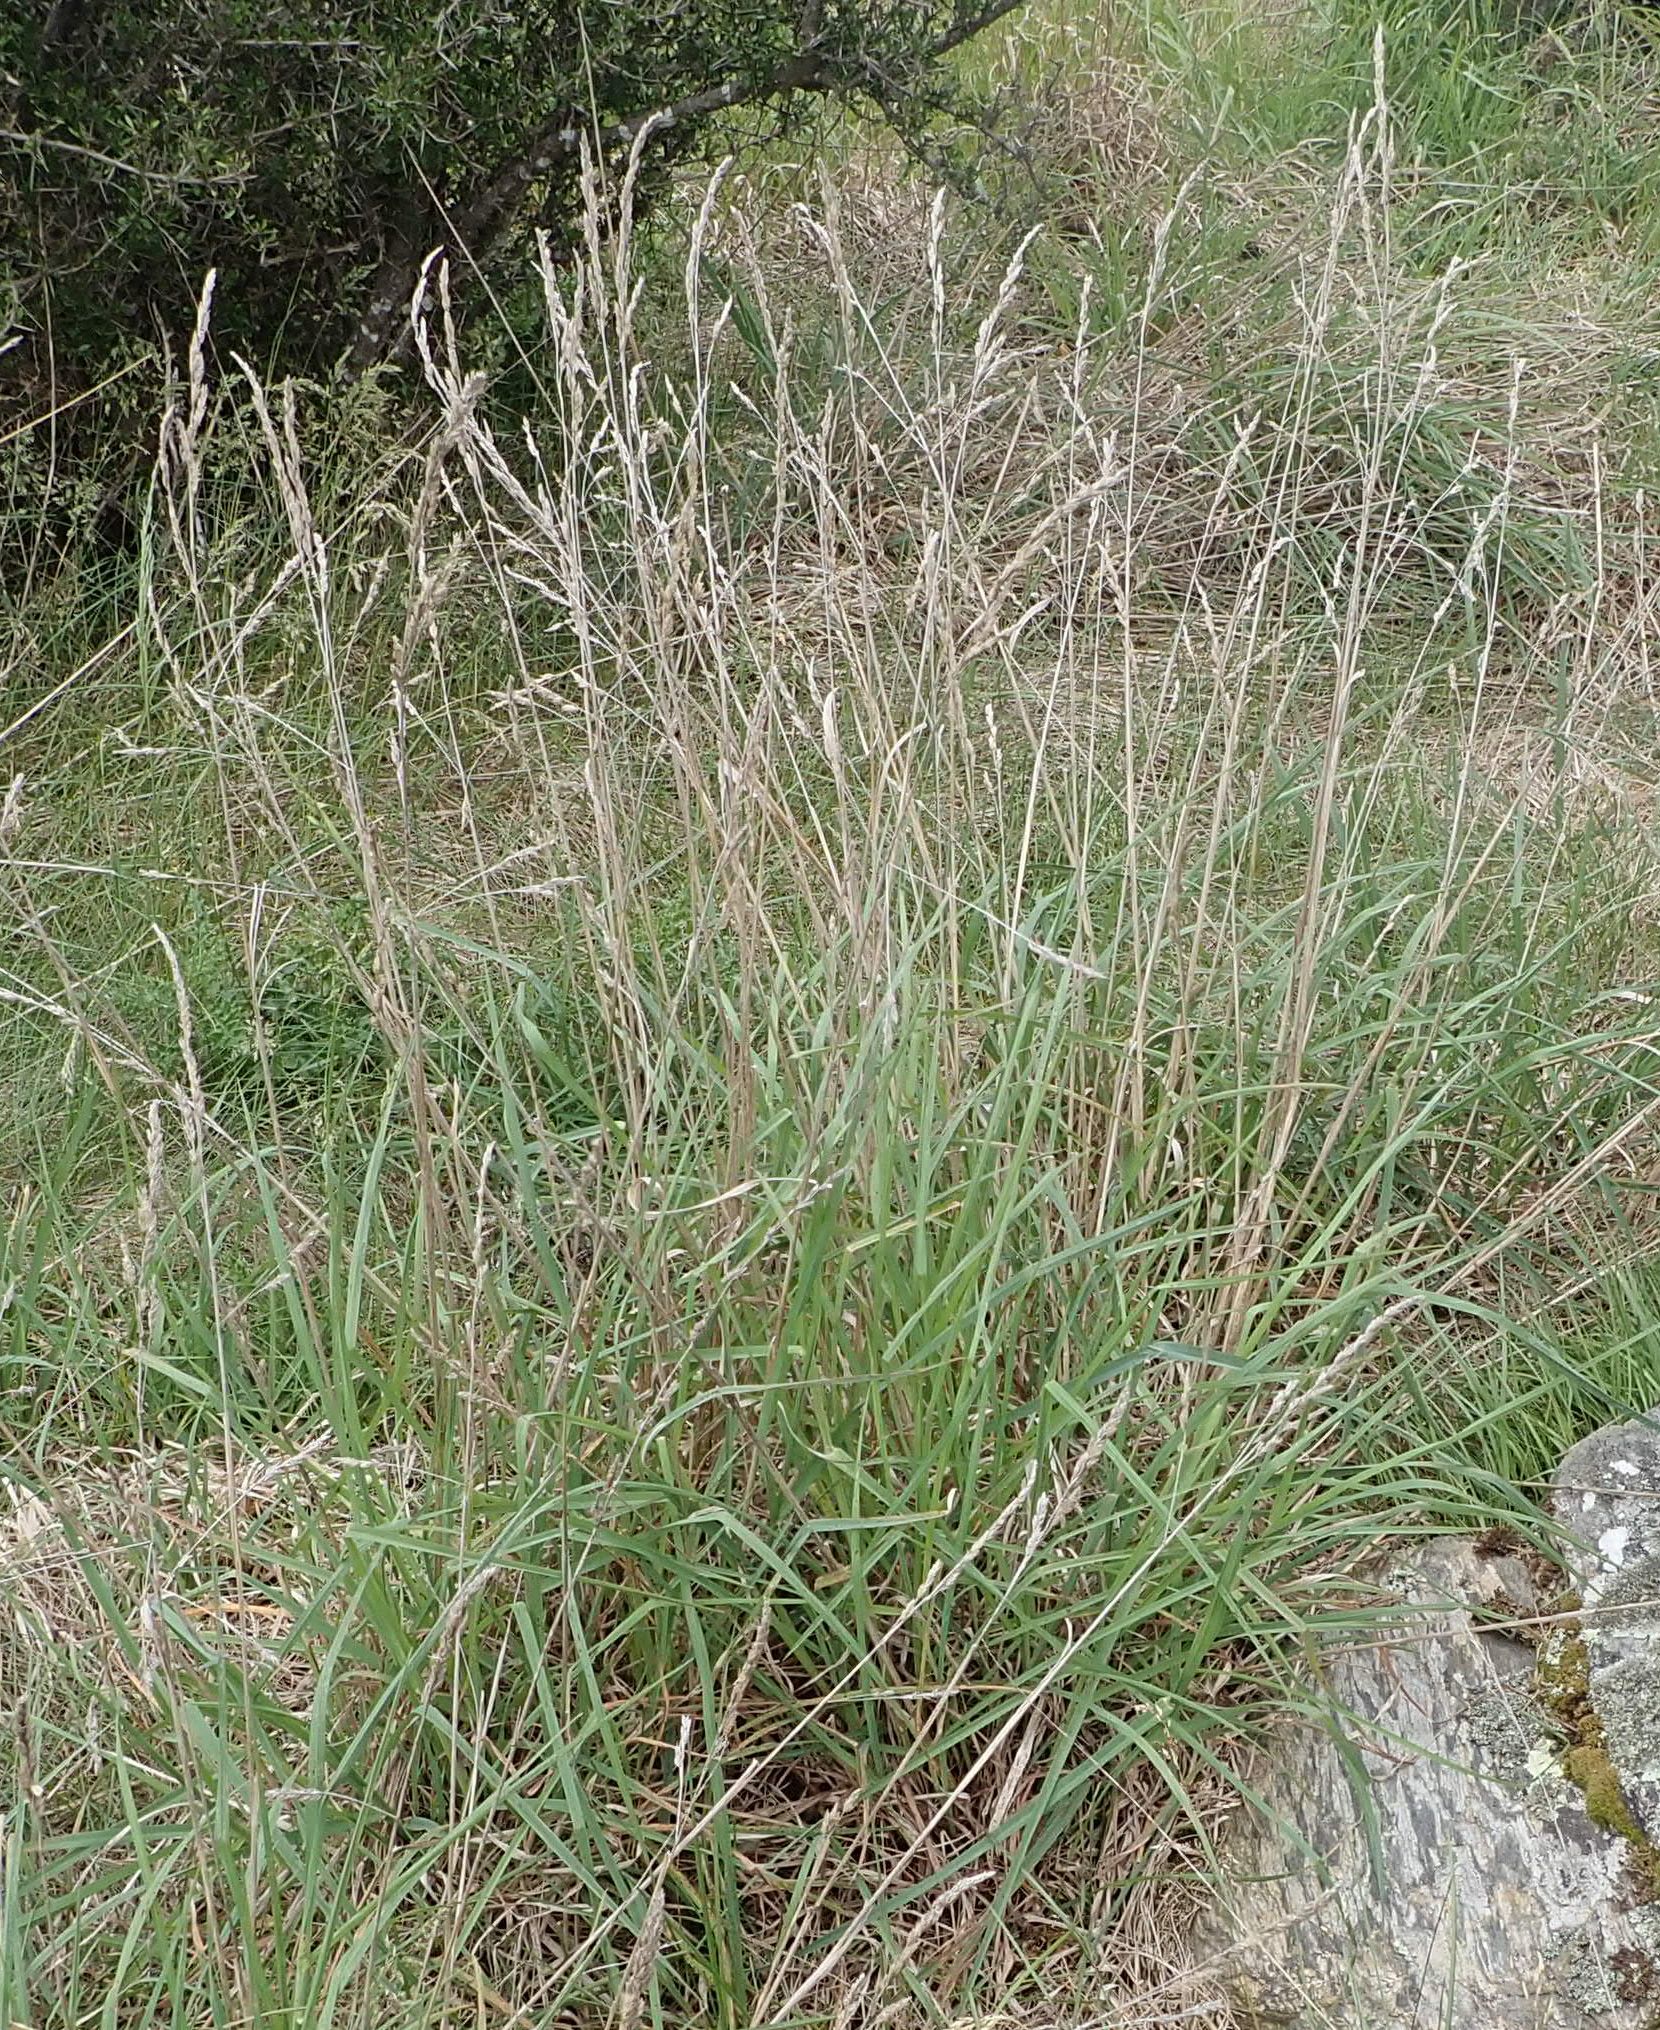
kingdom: Plantae
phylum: Tracheophyta
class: Liliopsida
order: Poales
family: Poaceae
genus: Dactylis
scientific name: Dactylis glomerata
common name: Orchardgrass
